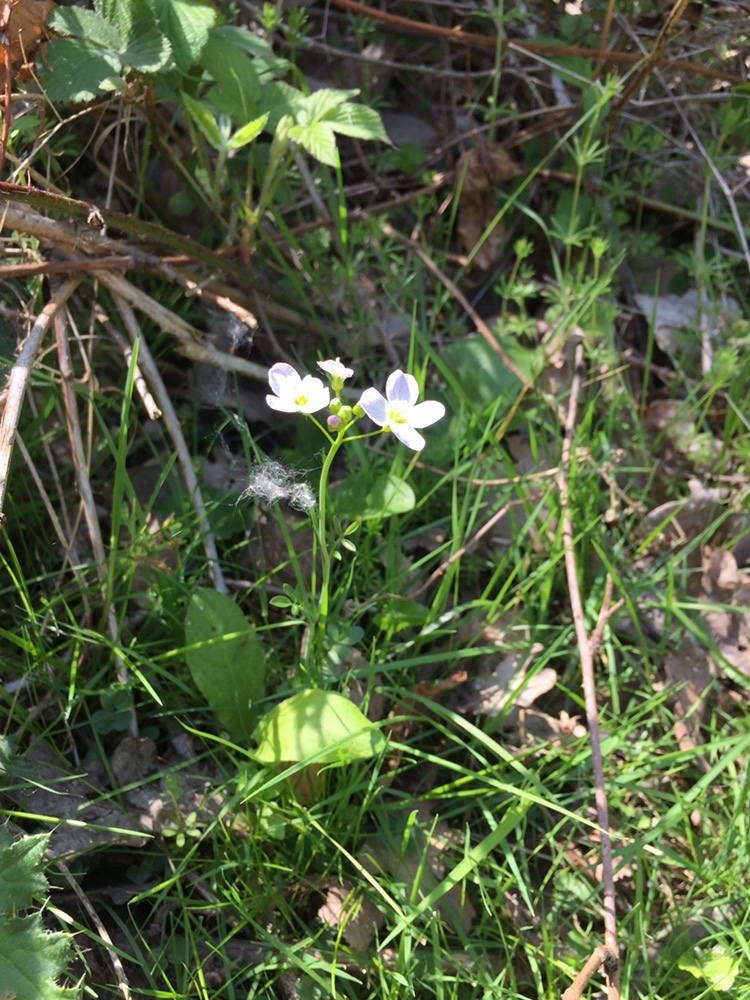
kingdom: Plantae
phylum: Tracheophyta
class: Magnoliopsida
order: Brassicales
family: Brassicaceae
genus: Cardamine
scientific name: Cardamine pratensis
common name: Cuckoo flower
